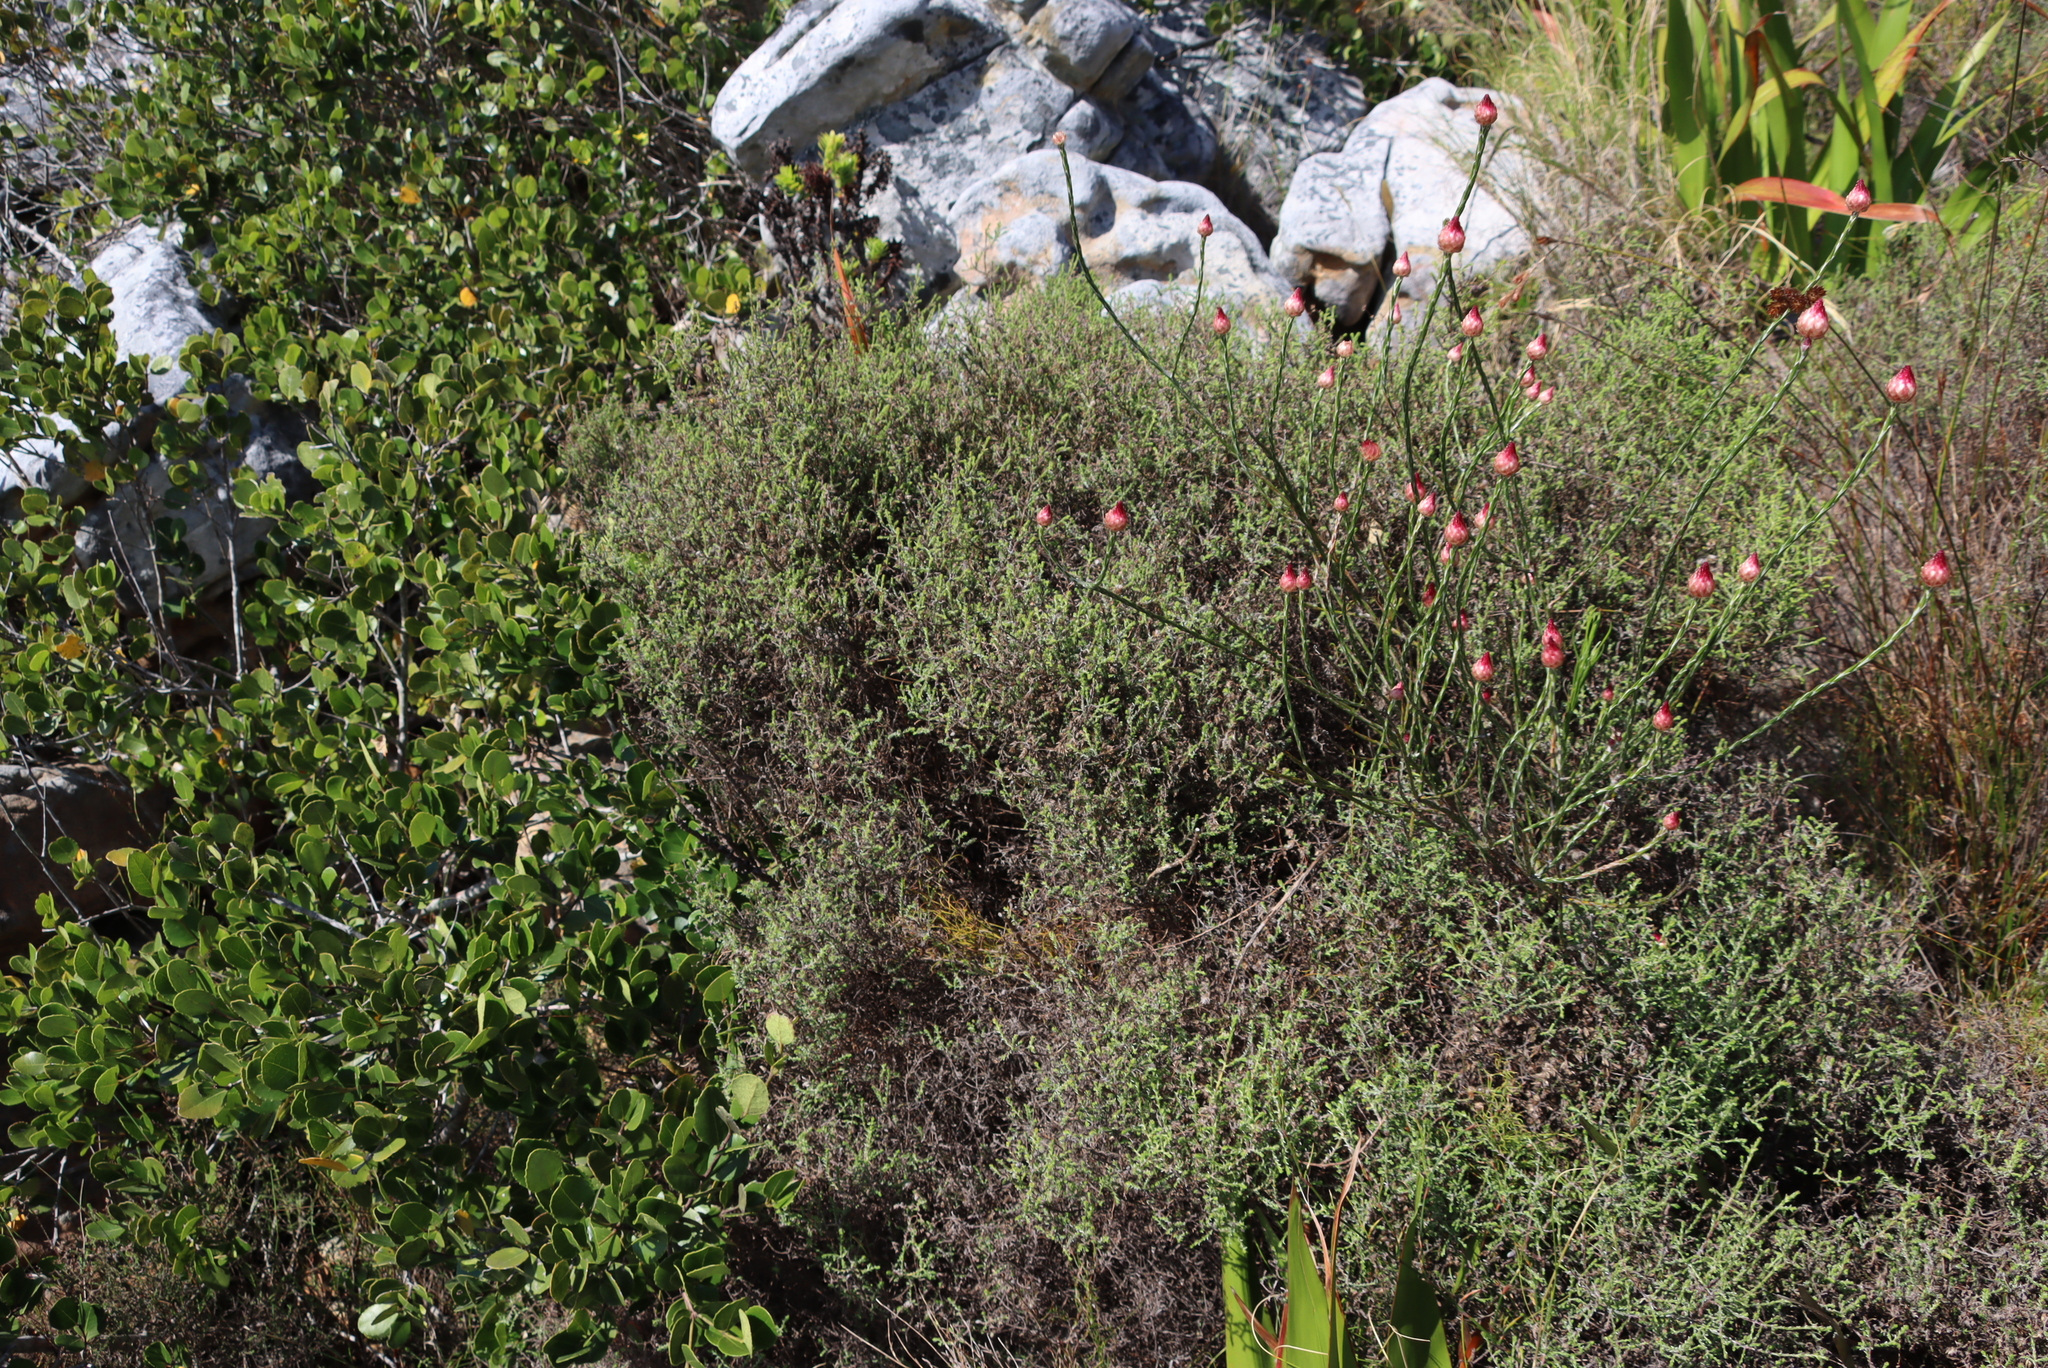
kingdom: Plantae
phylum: Tracheophyta
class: Magnoliopsida
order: Asterales
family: Asteraceae
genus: Edmondia
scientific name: Edmondia sesamoides
